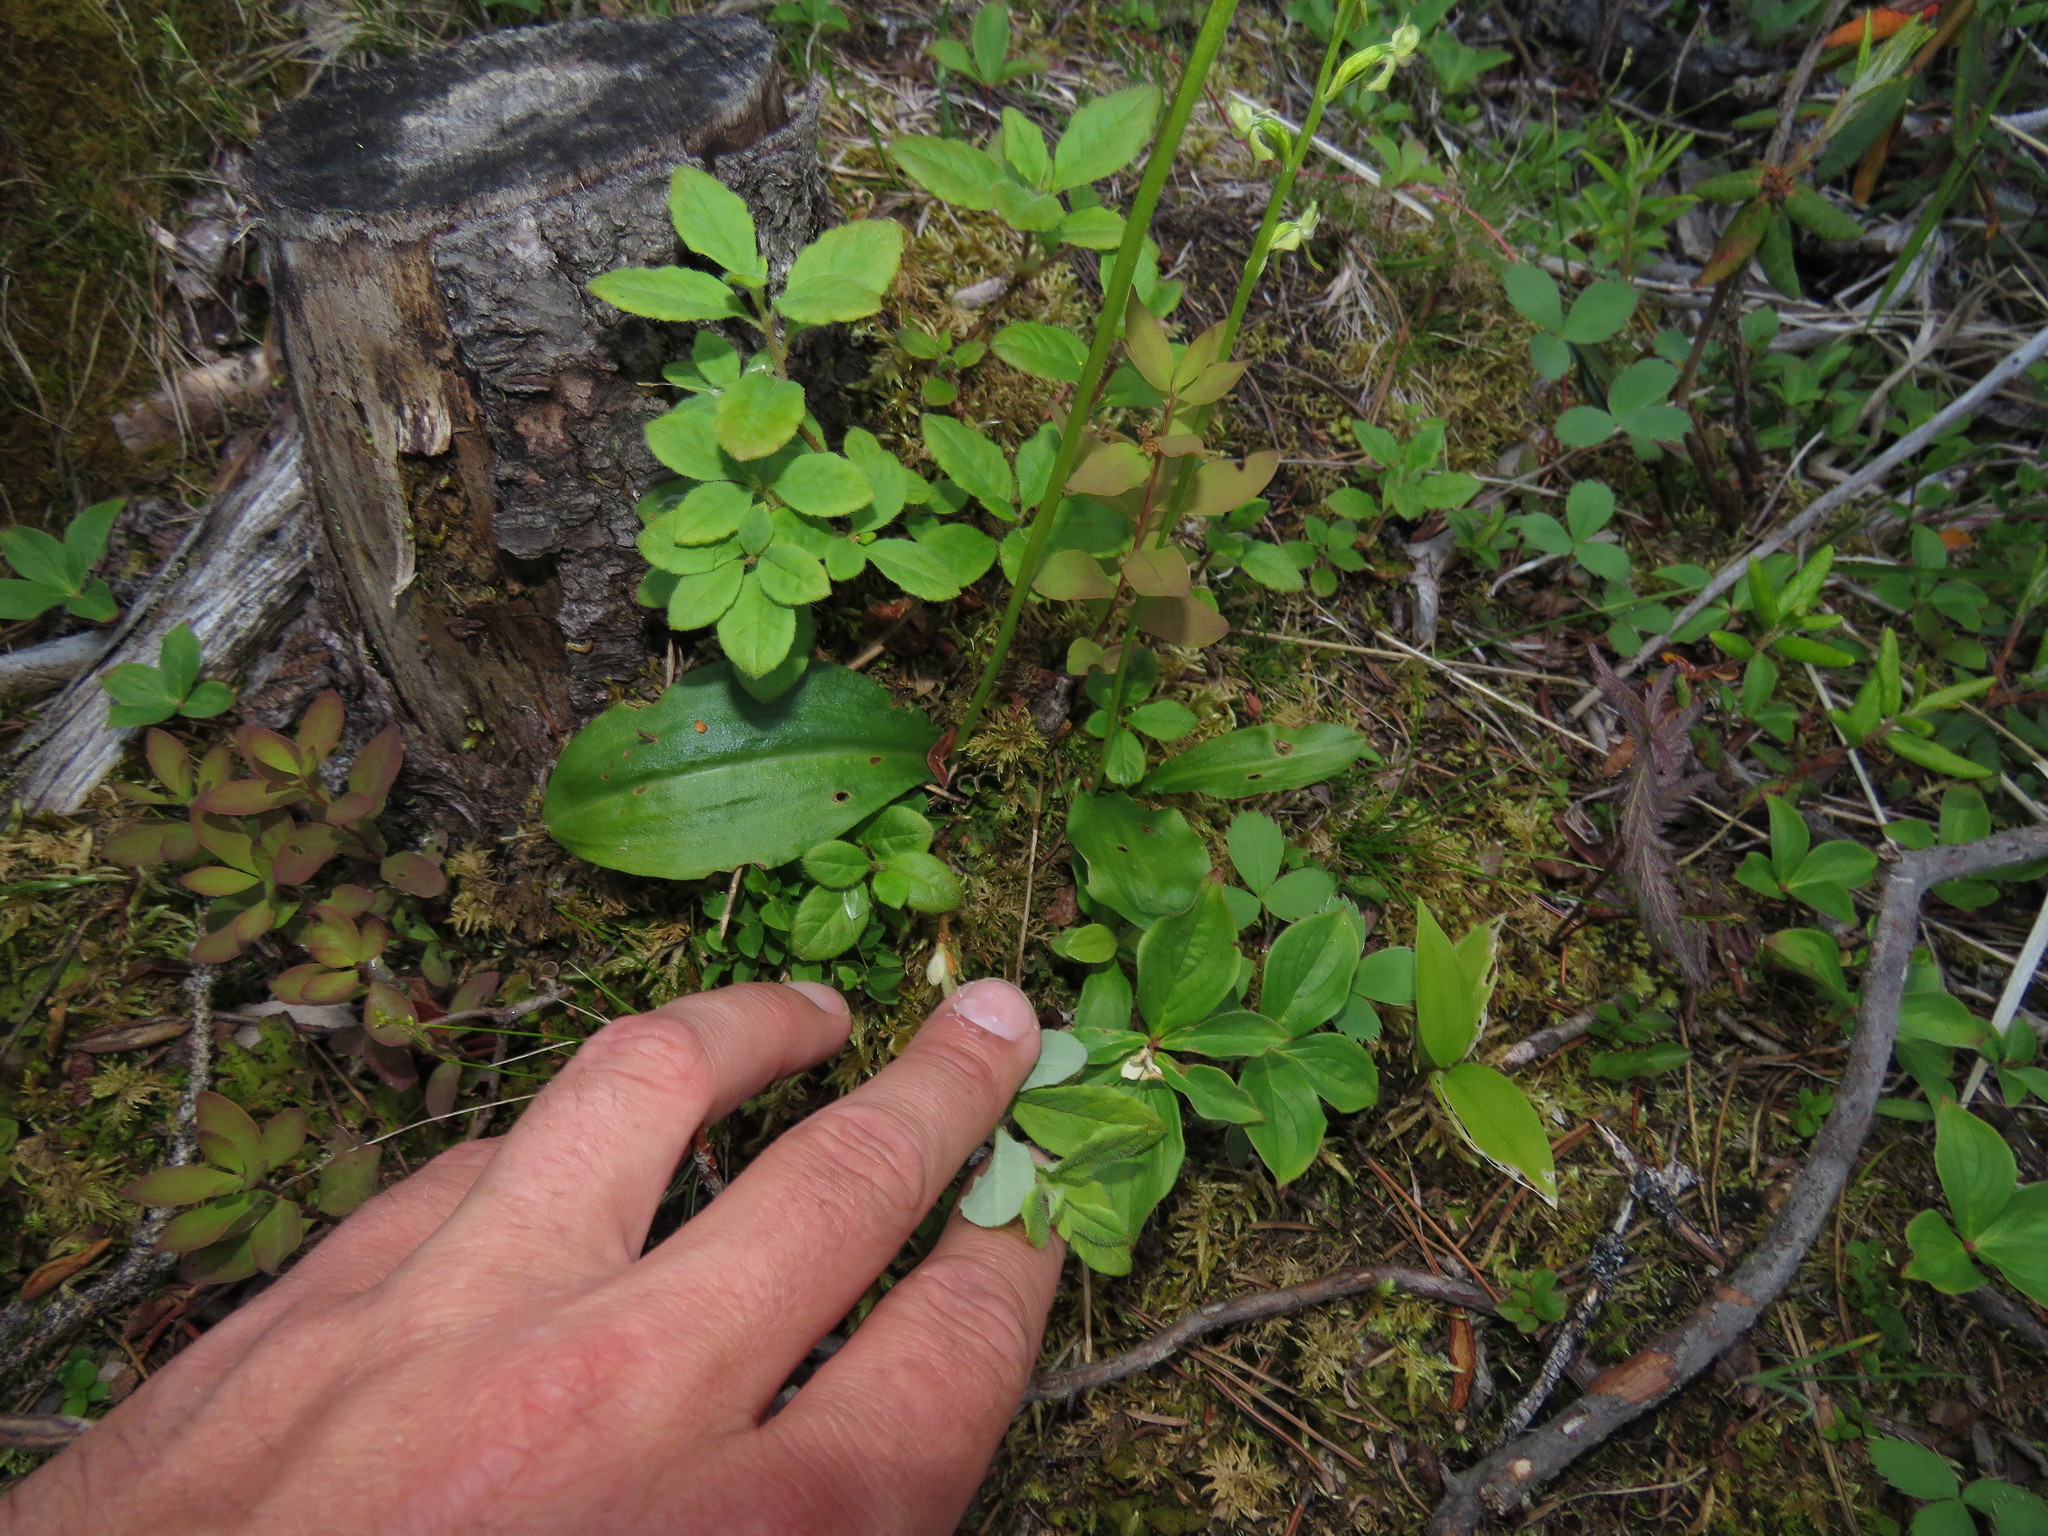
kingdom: Plantae
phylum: Tracheophyta
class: Liliopsida
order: Asparagales
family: Orchidaceae
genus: Platanthera
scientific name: Platanthera obtusata
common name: Blunt bog orchid
